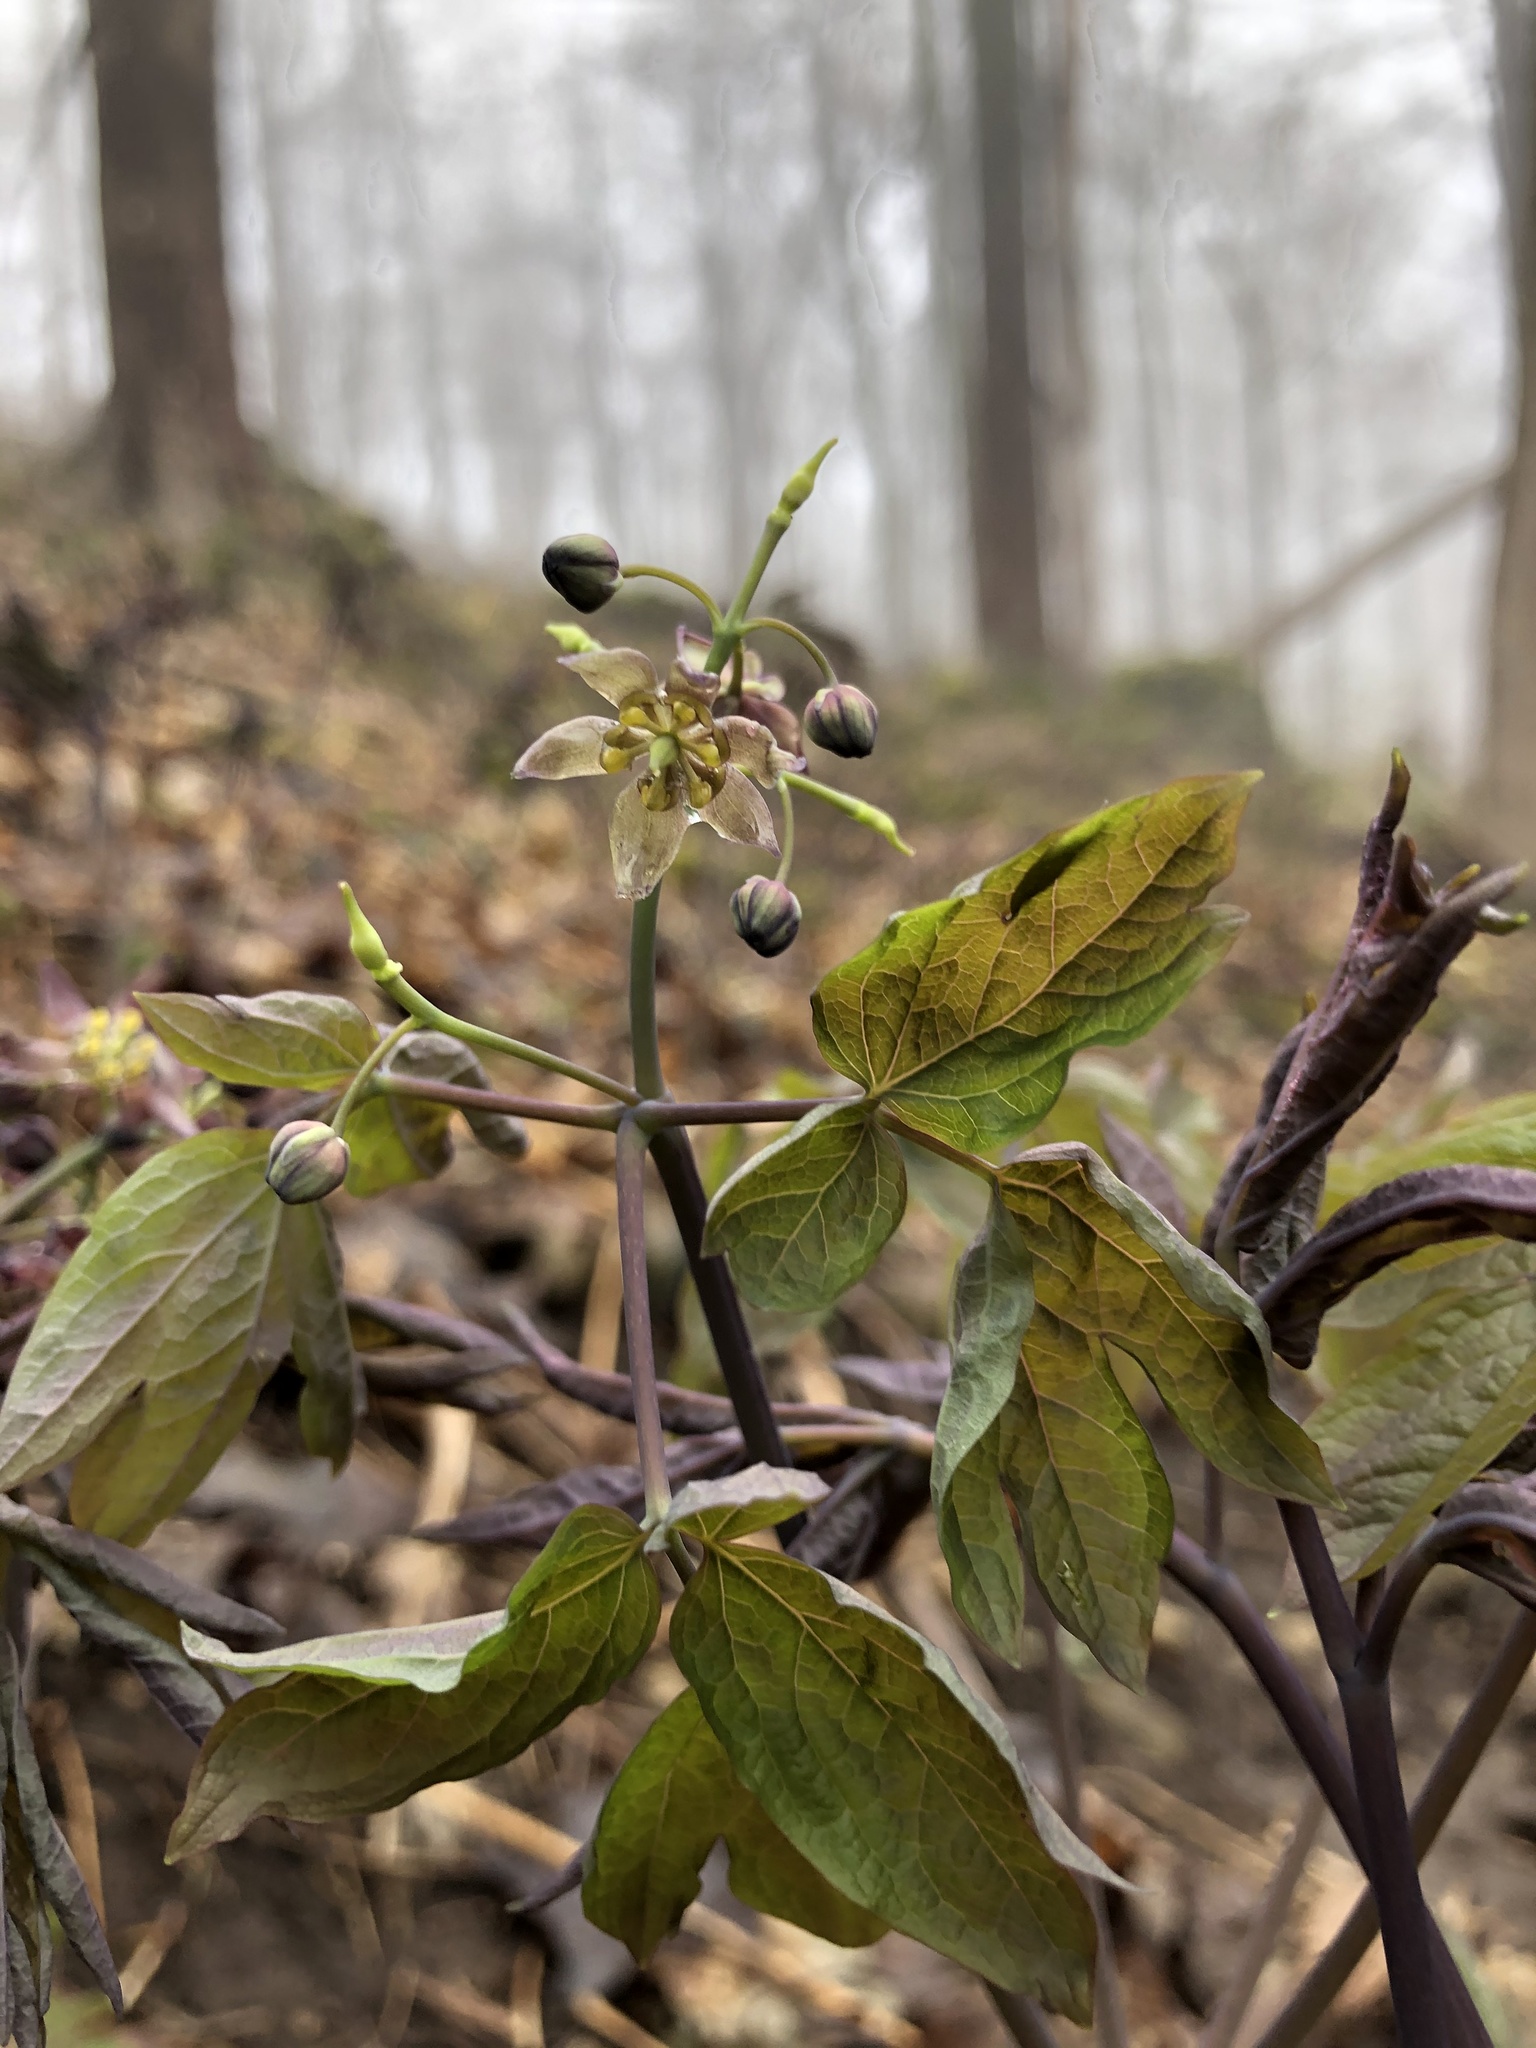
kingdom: Plantae
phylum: Tracheophyta
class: Magnoliopsida
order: Ranunculales
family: Berberidaceae
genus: Caulophyllum
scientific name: Caulophyllum giganteum
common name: Blue cohosh
